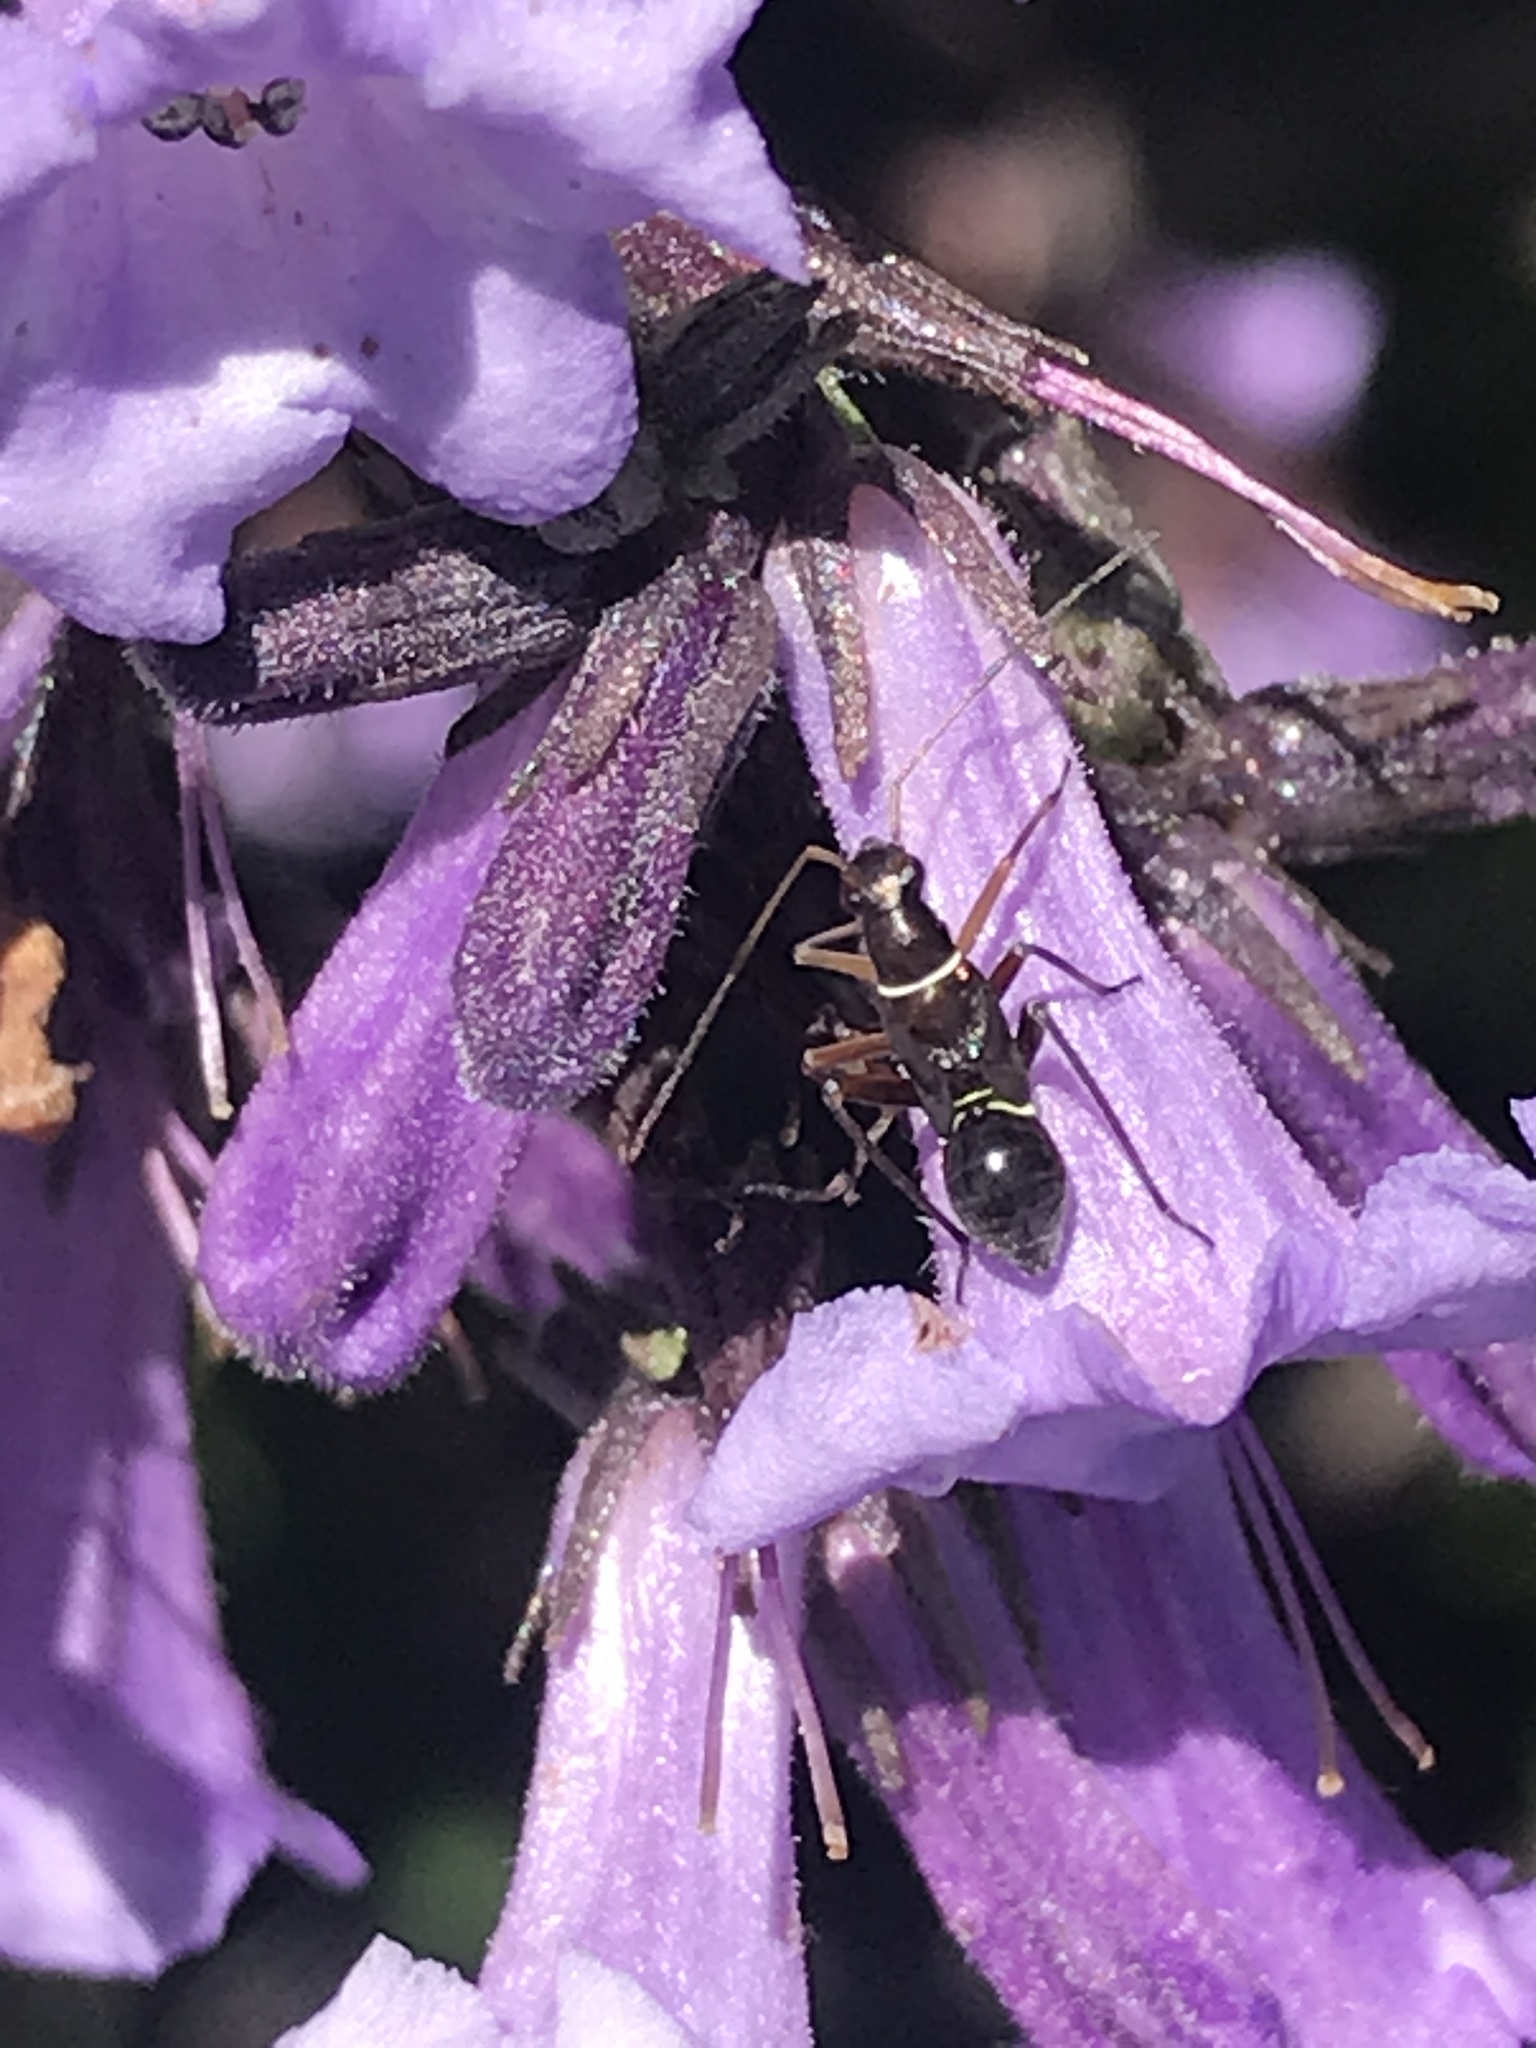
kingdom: Animalia
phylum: Arthropoda
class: Insecta
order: Hemiptera
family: Miridae
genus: Closterocoris
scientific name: Closterocoris amoenus
